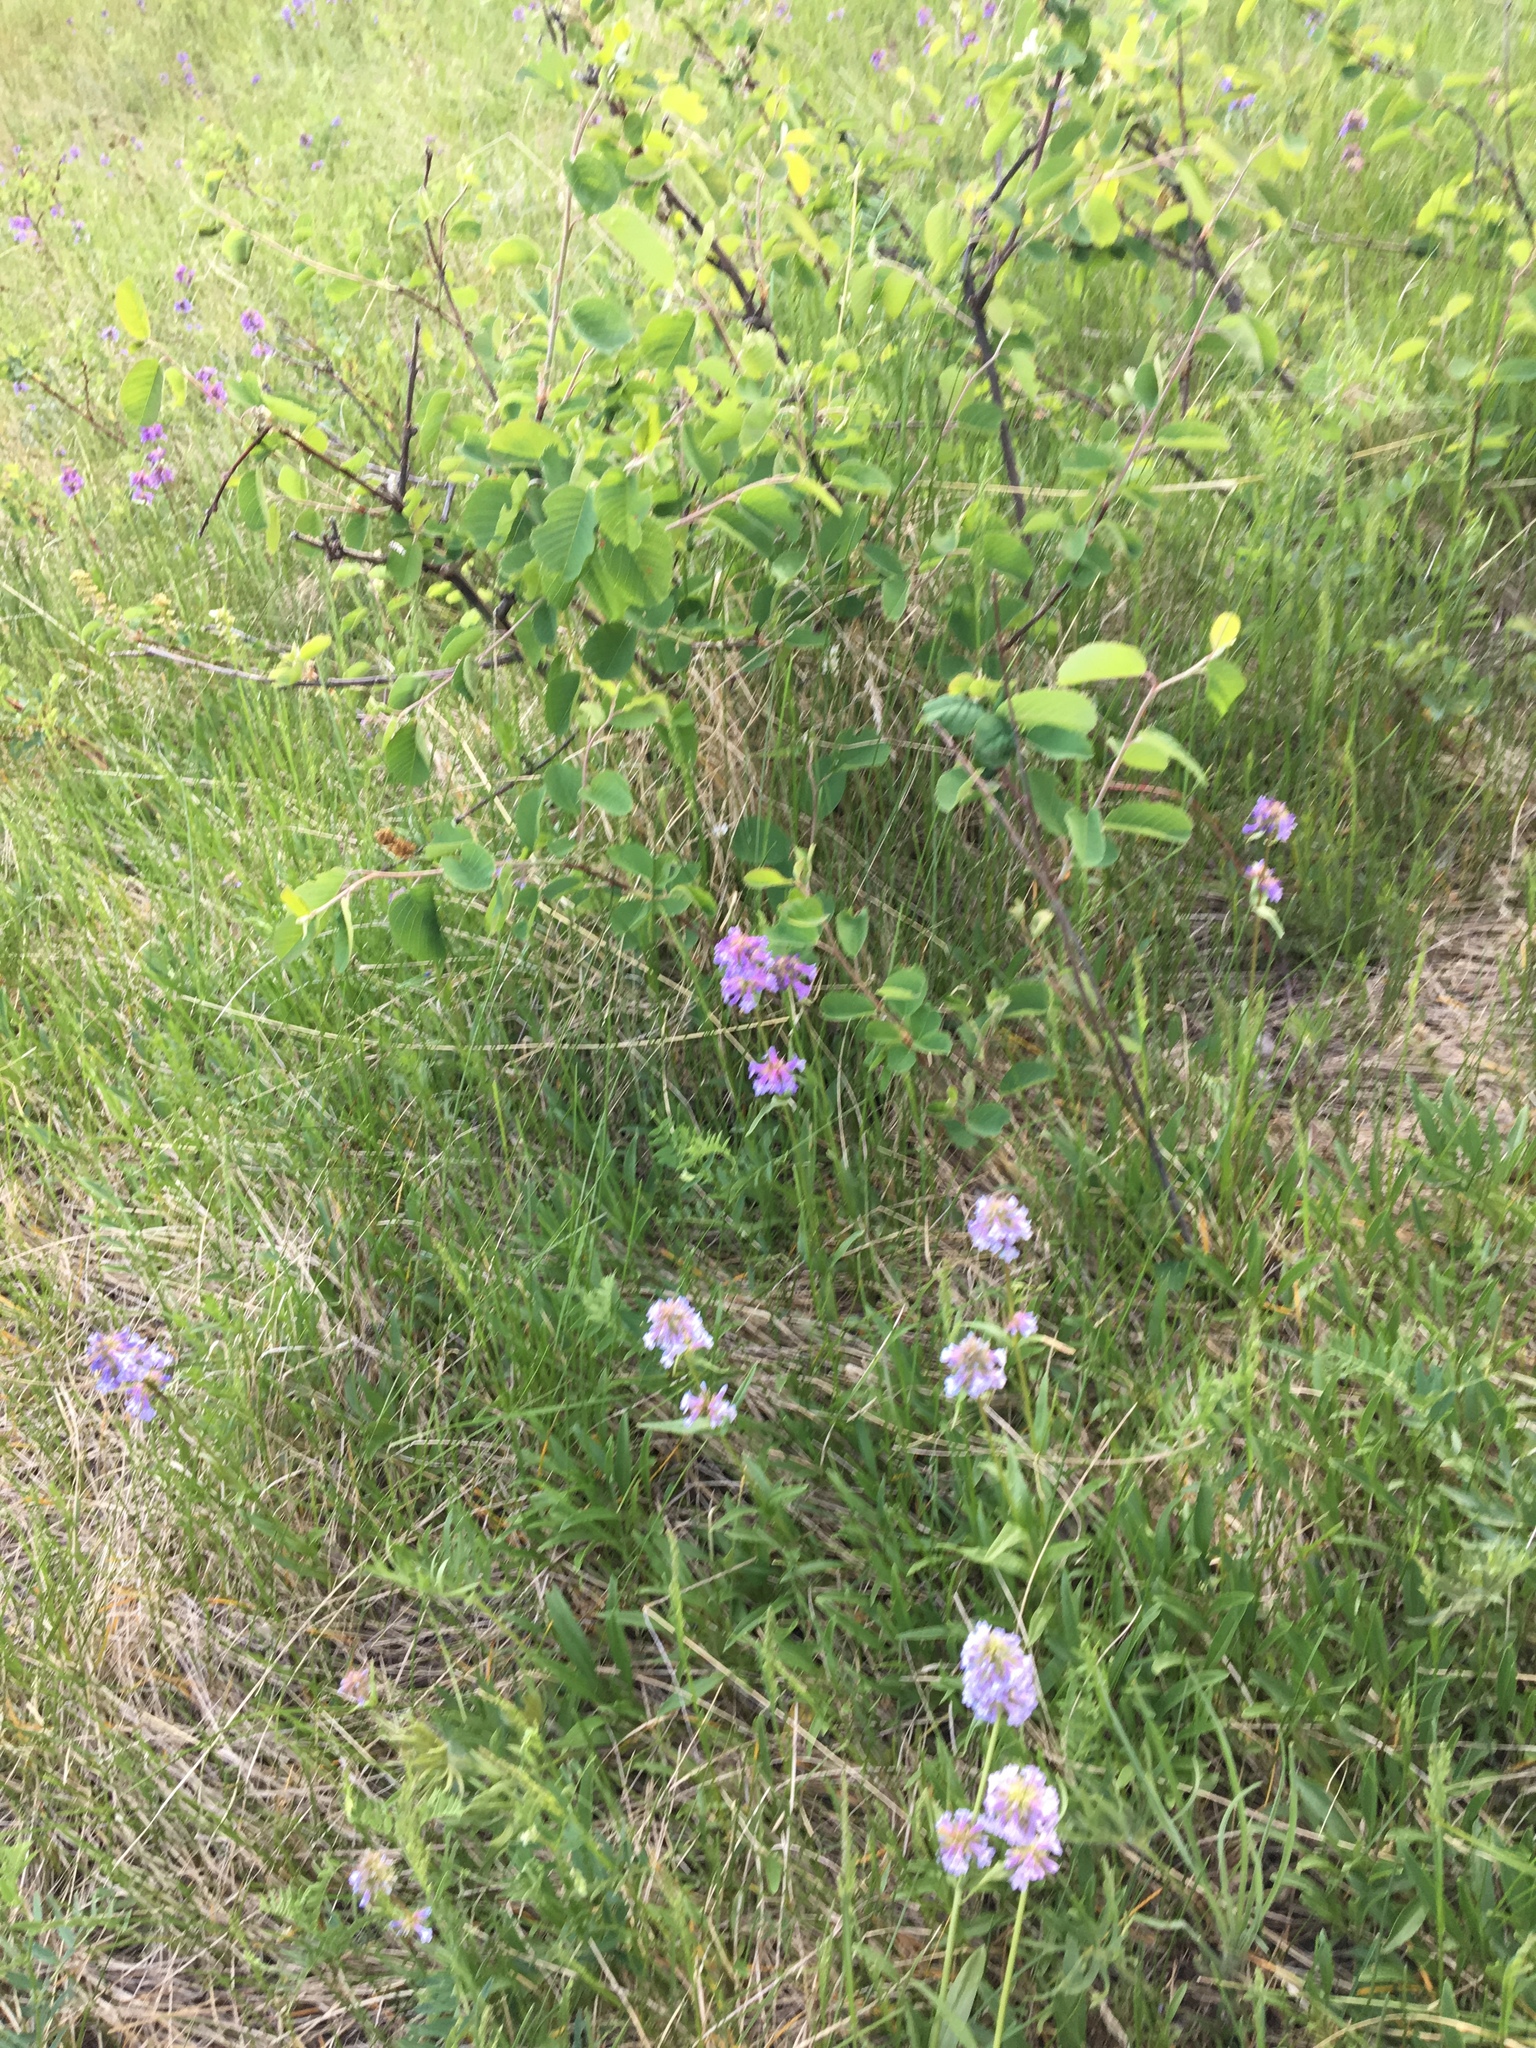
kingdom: Plantae
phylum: Tracheophyta
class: Magnoliopsida
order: Lamiales
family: Plantaginaceae
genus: Penstemon
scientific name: Penstemon procerus
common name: Small-flower penstemon
